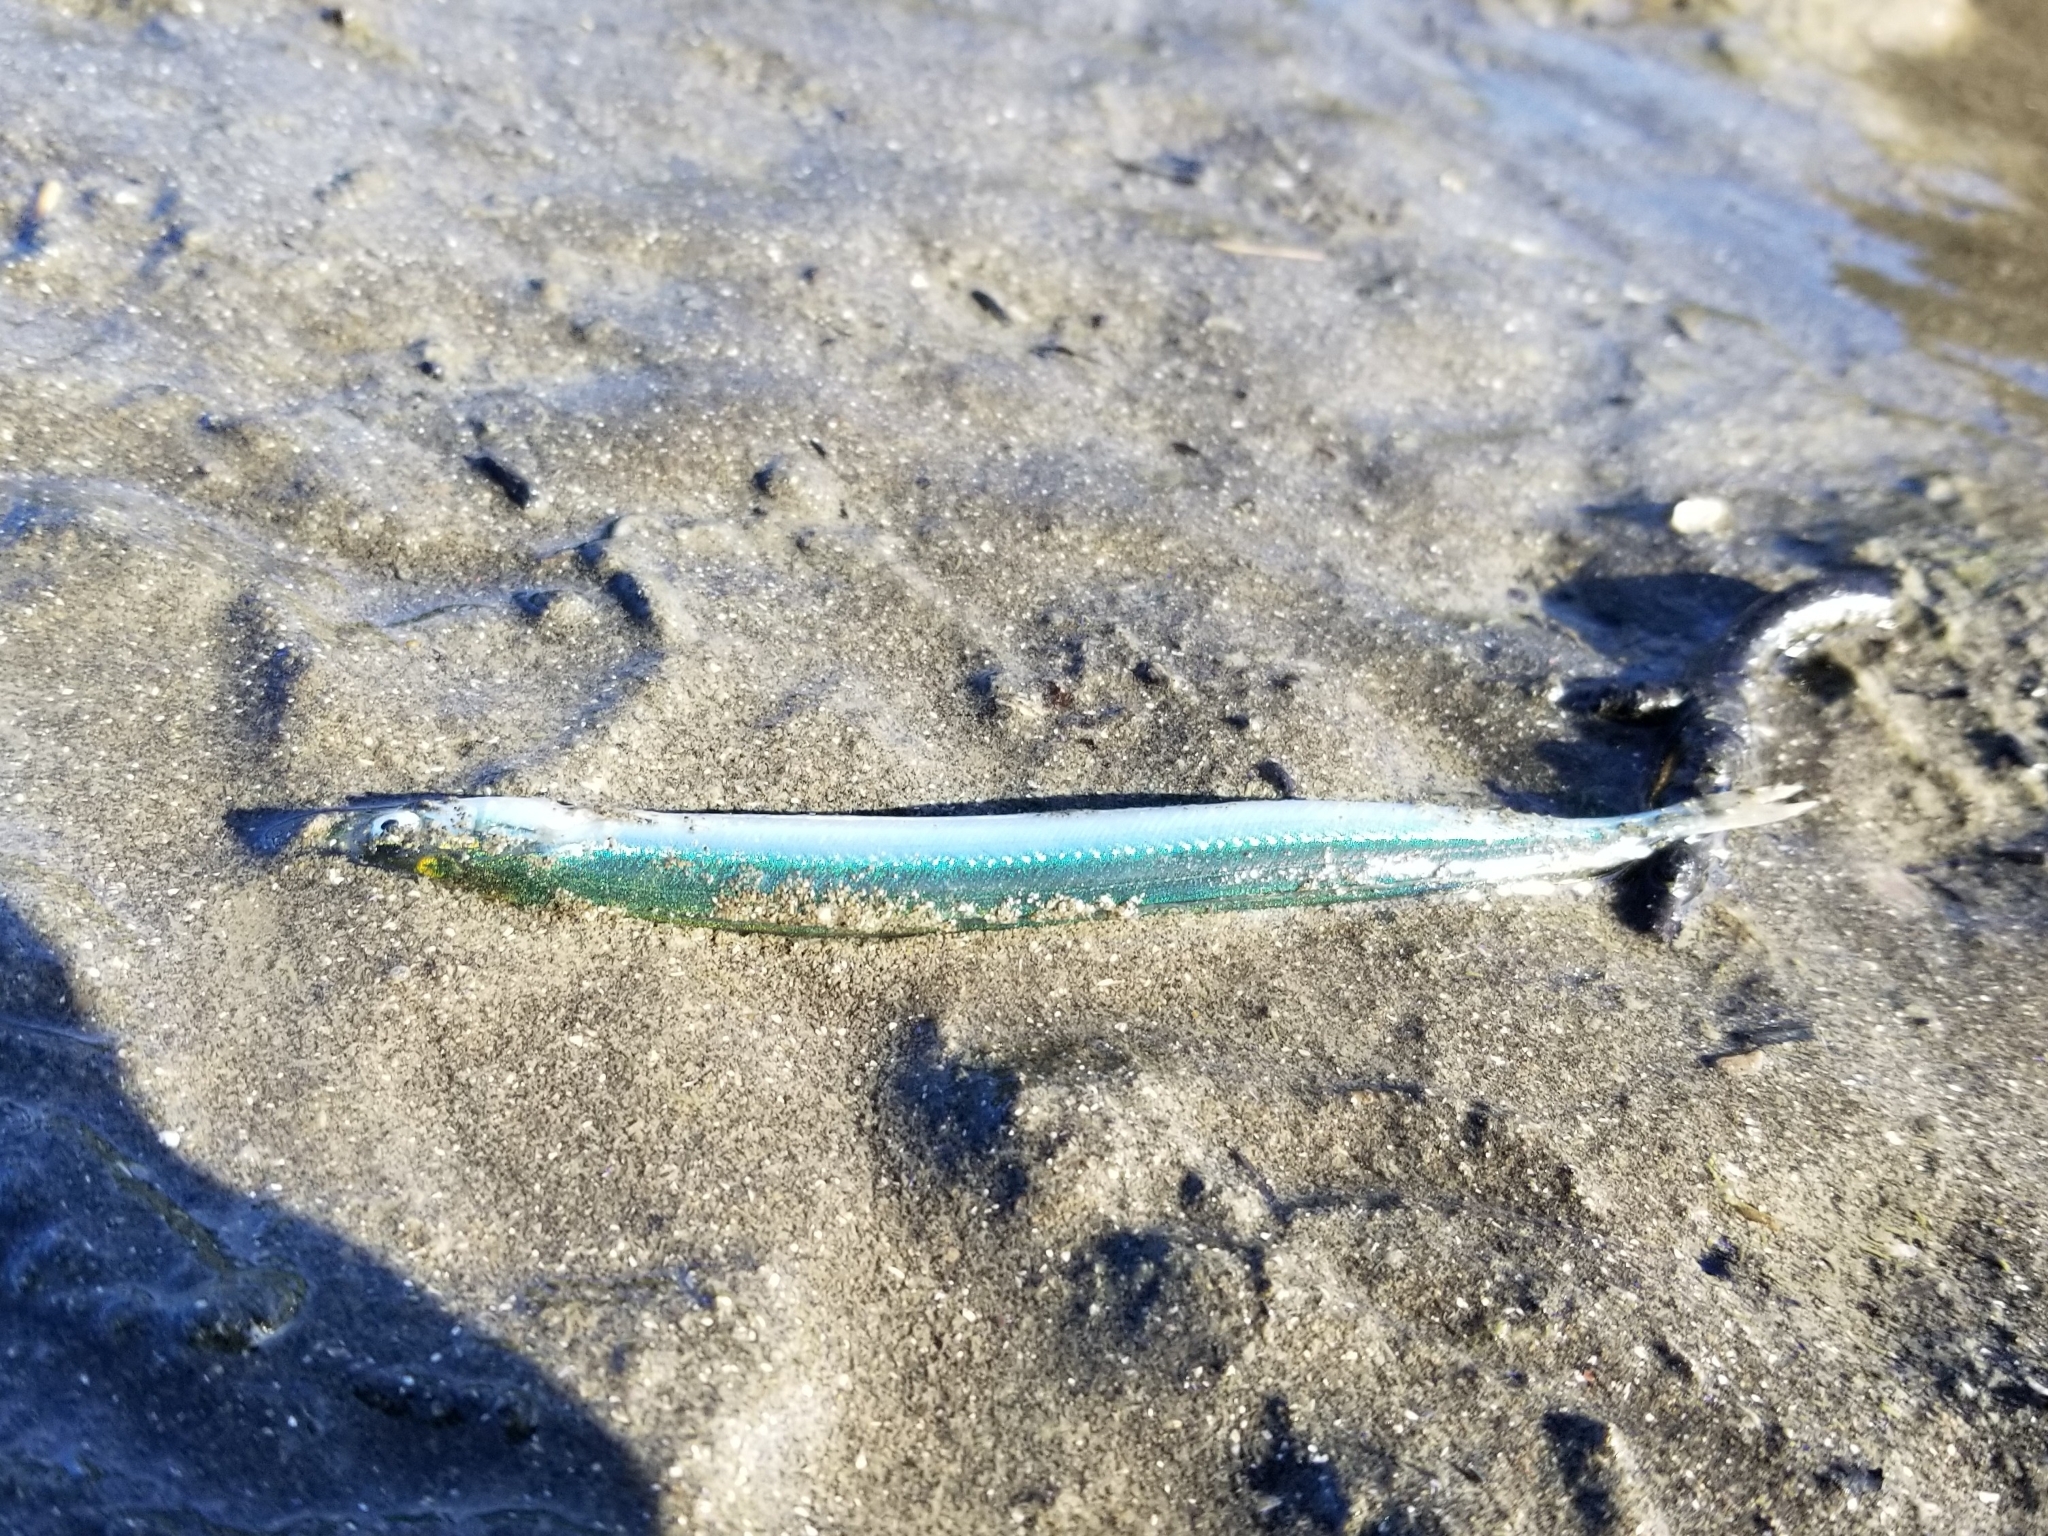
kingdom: Animalia
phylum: Chordata
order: Perciformes
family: Ammodytidae
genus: Ammodytes
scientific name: Ammodytes personatus
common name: Japanese sand lance
